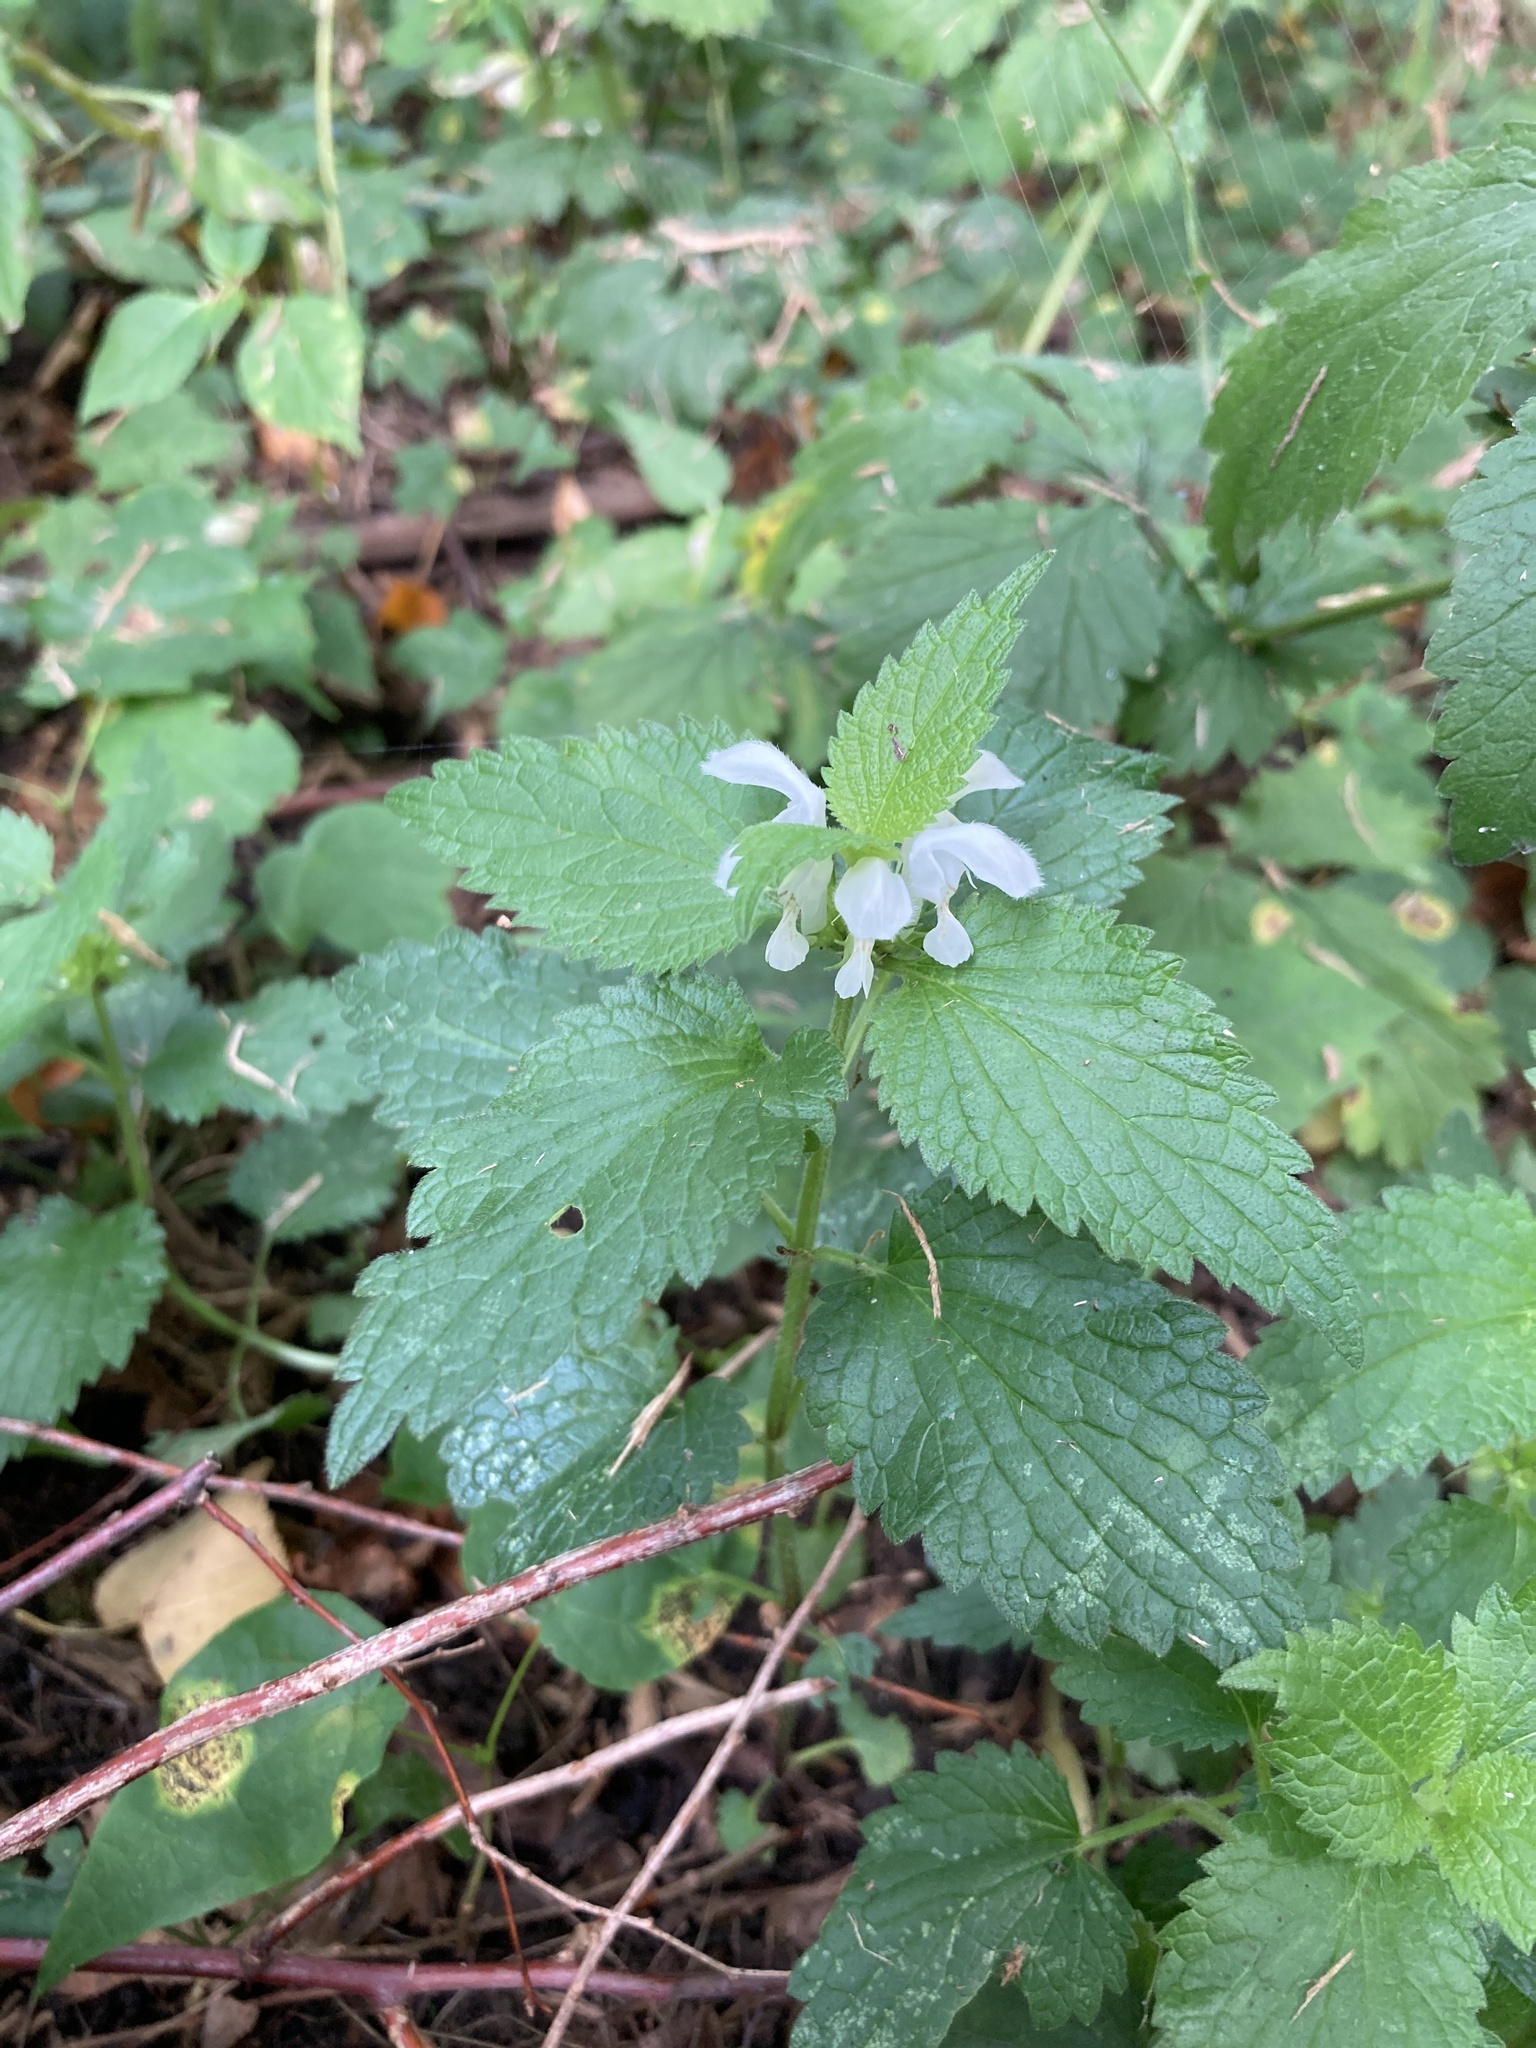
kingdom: Plantae
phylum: Tracheophyta
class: Magnoliopsida
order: Lamiales
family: Lamiaceae
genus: Lamium
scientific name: Lamium album
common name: White dead-nettle
